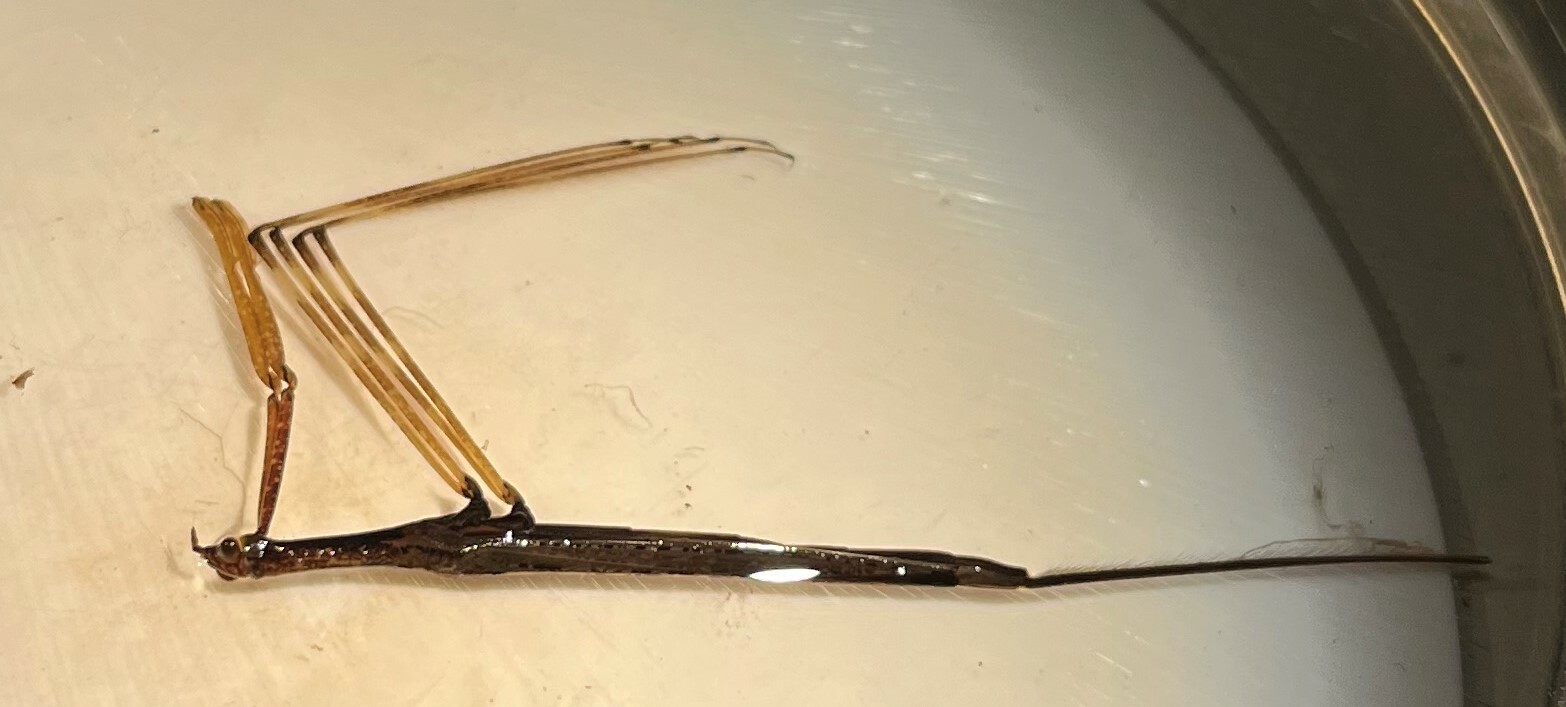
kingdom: Animalia
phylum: Arthropoda
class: Insecta
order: Hemiptera
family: Nepidae
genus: Ranatra
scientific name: Ranatra texana
